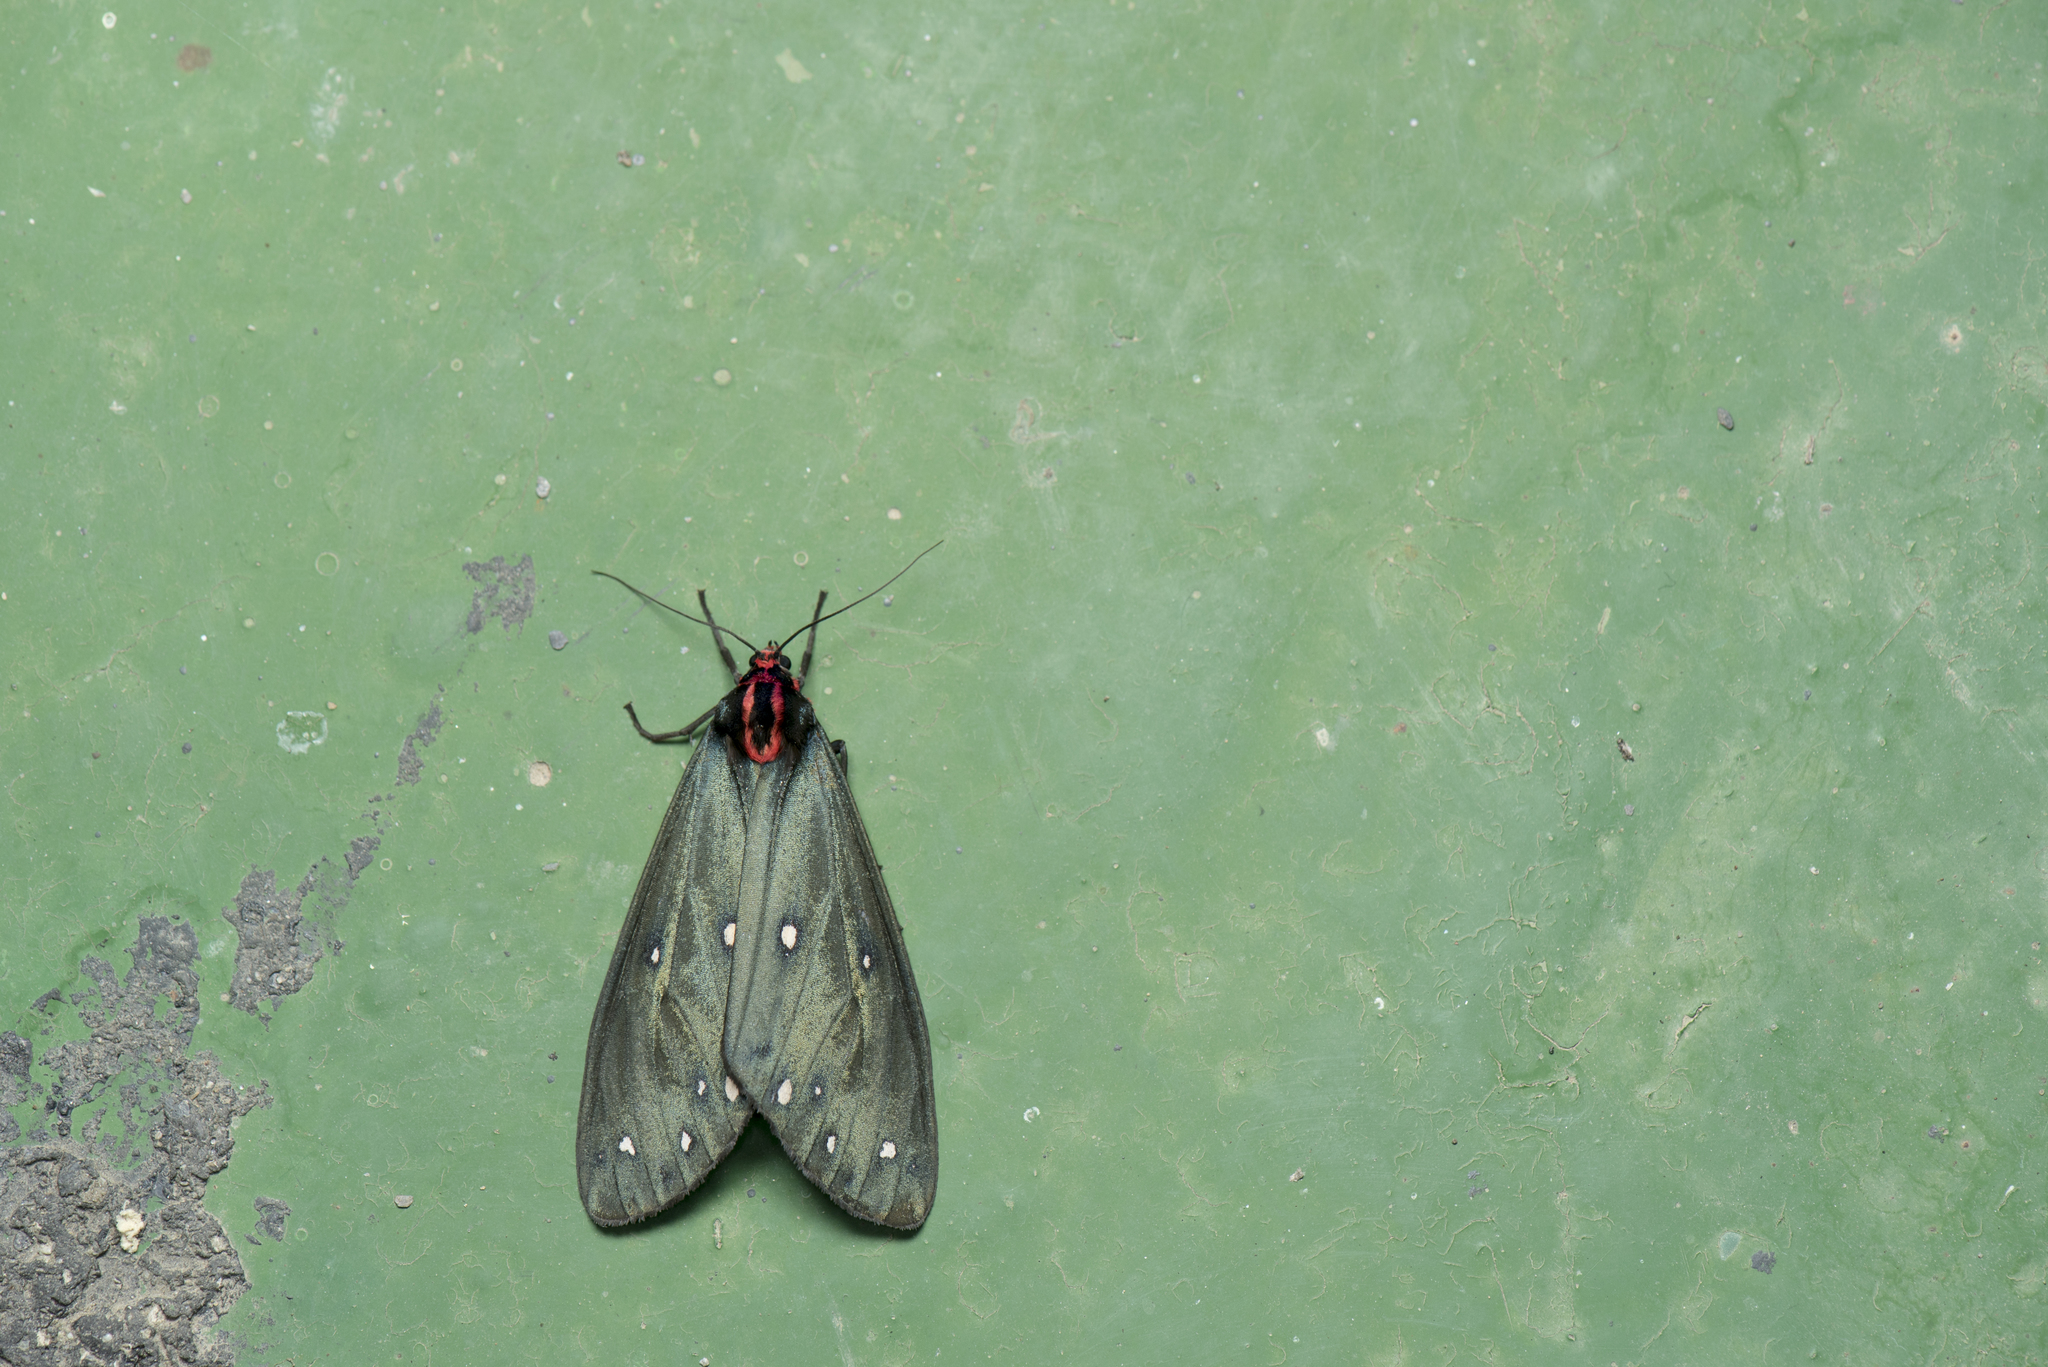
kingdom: Animalia
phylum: Arthropoda
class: Insecta
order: Lepidoptera
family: Erebidae
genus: Taicallimorpha
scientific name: Taicallimorpha albipuncta
